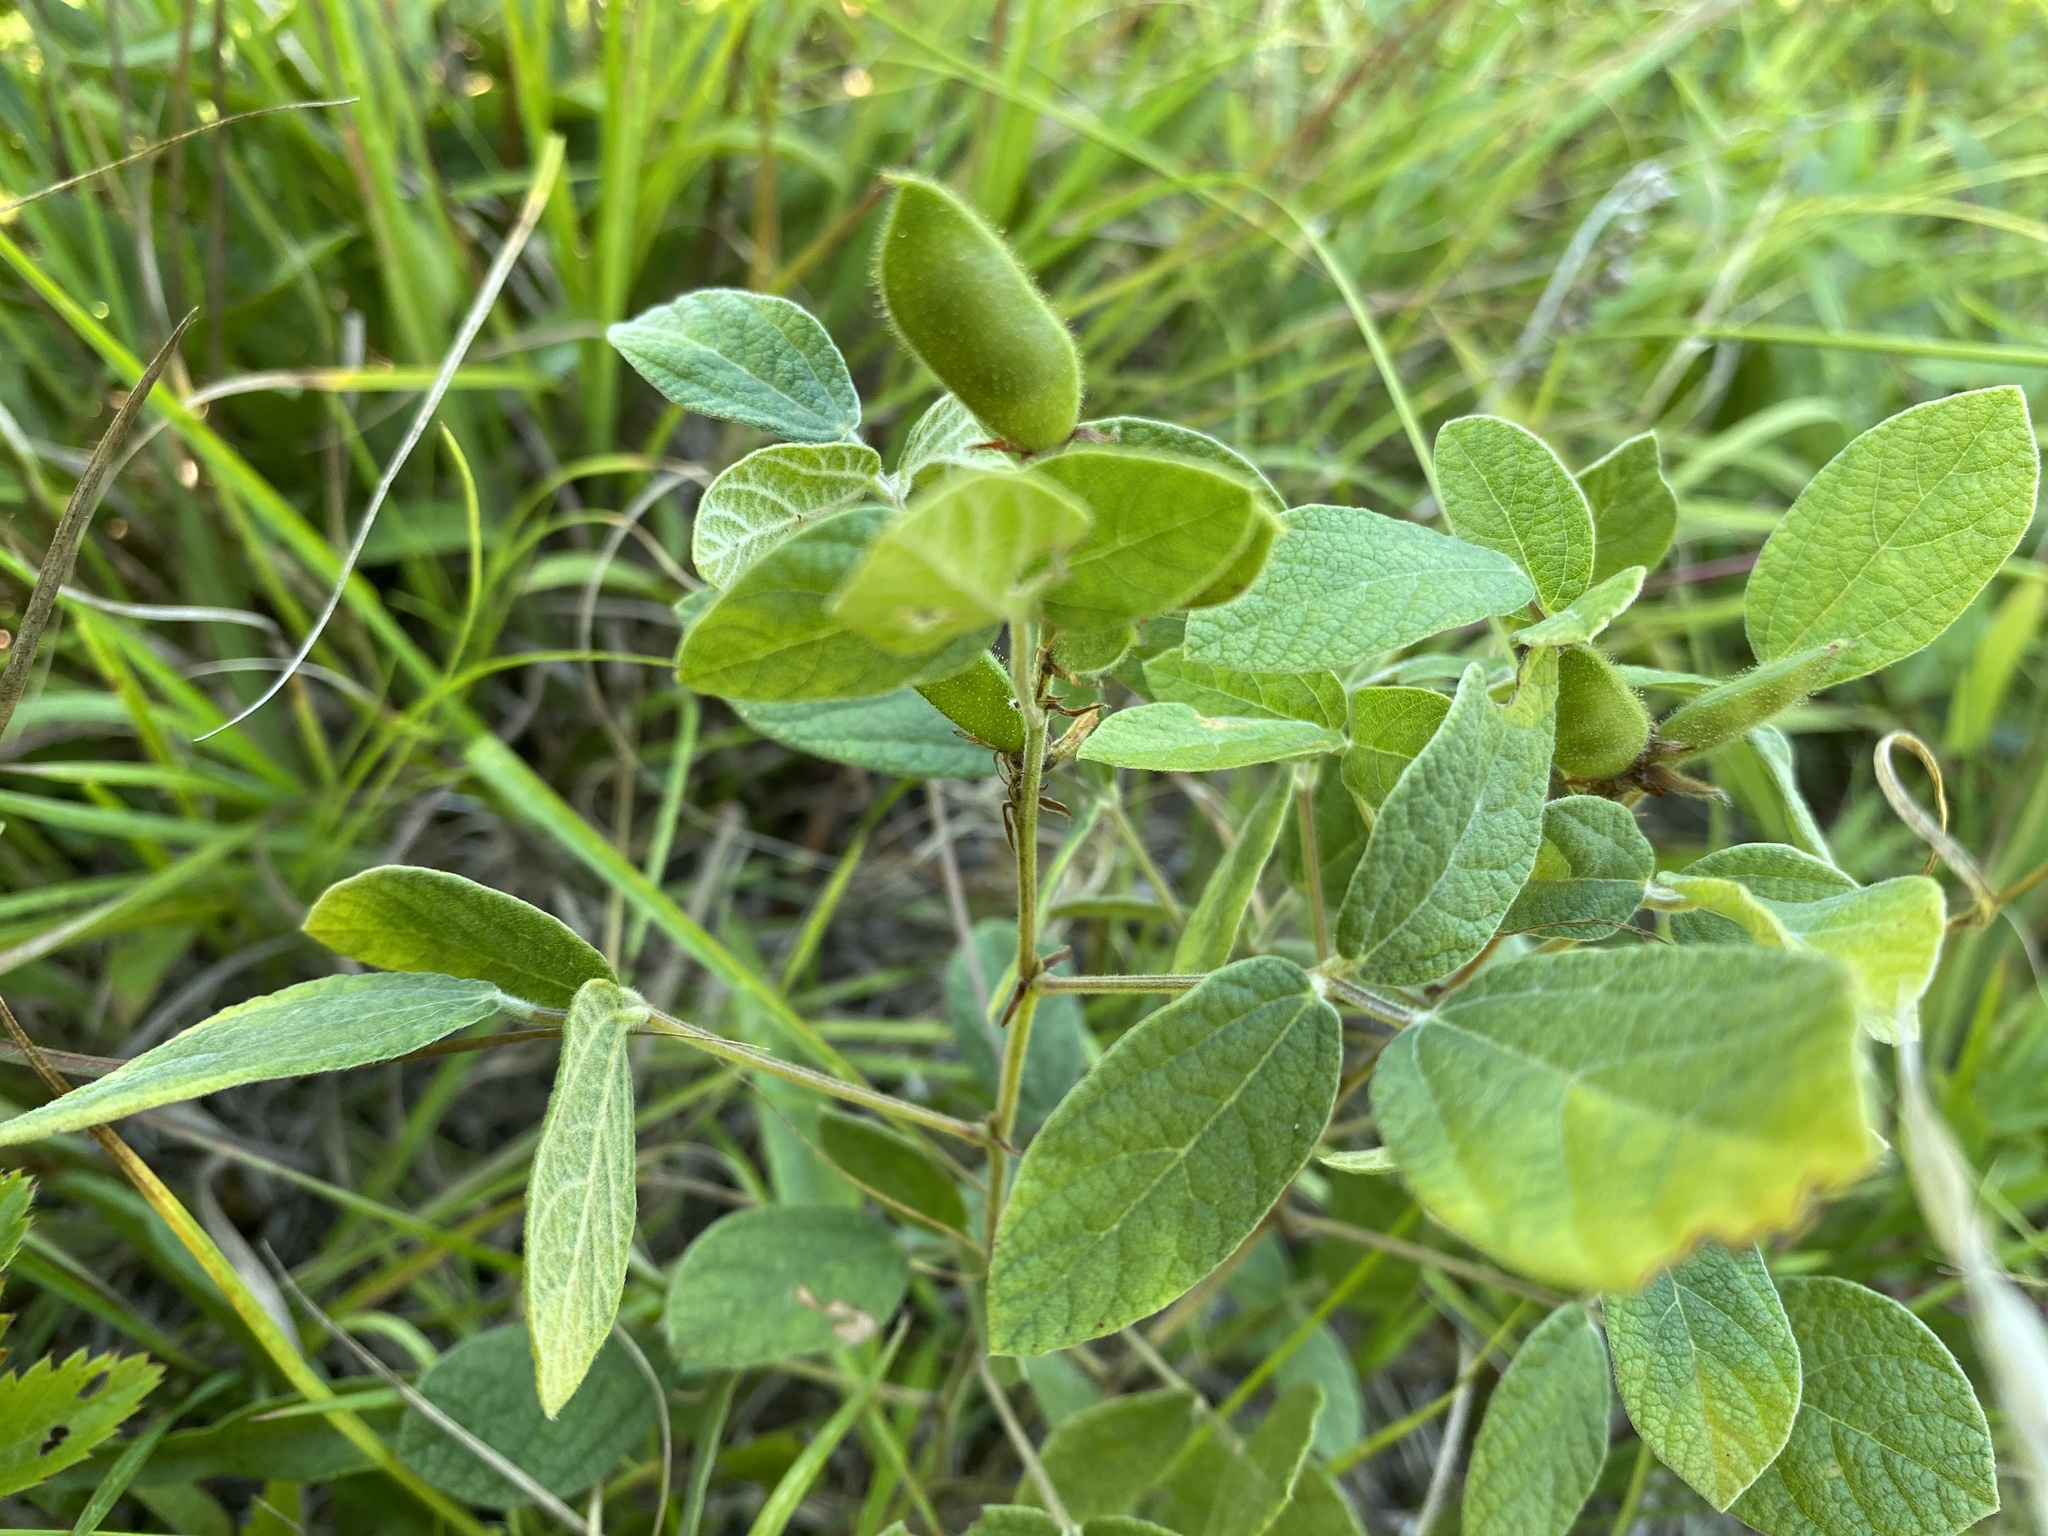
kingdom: Plantae
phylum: Tracheophyta
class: Magnoliopsida
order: Fabales
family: Fabaceae
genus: Rhynchosia
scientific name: Rhynchosia tomentosa
